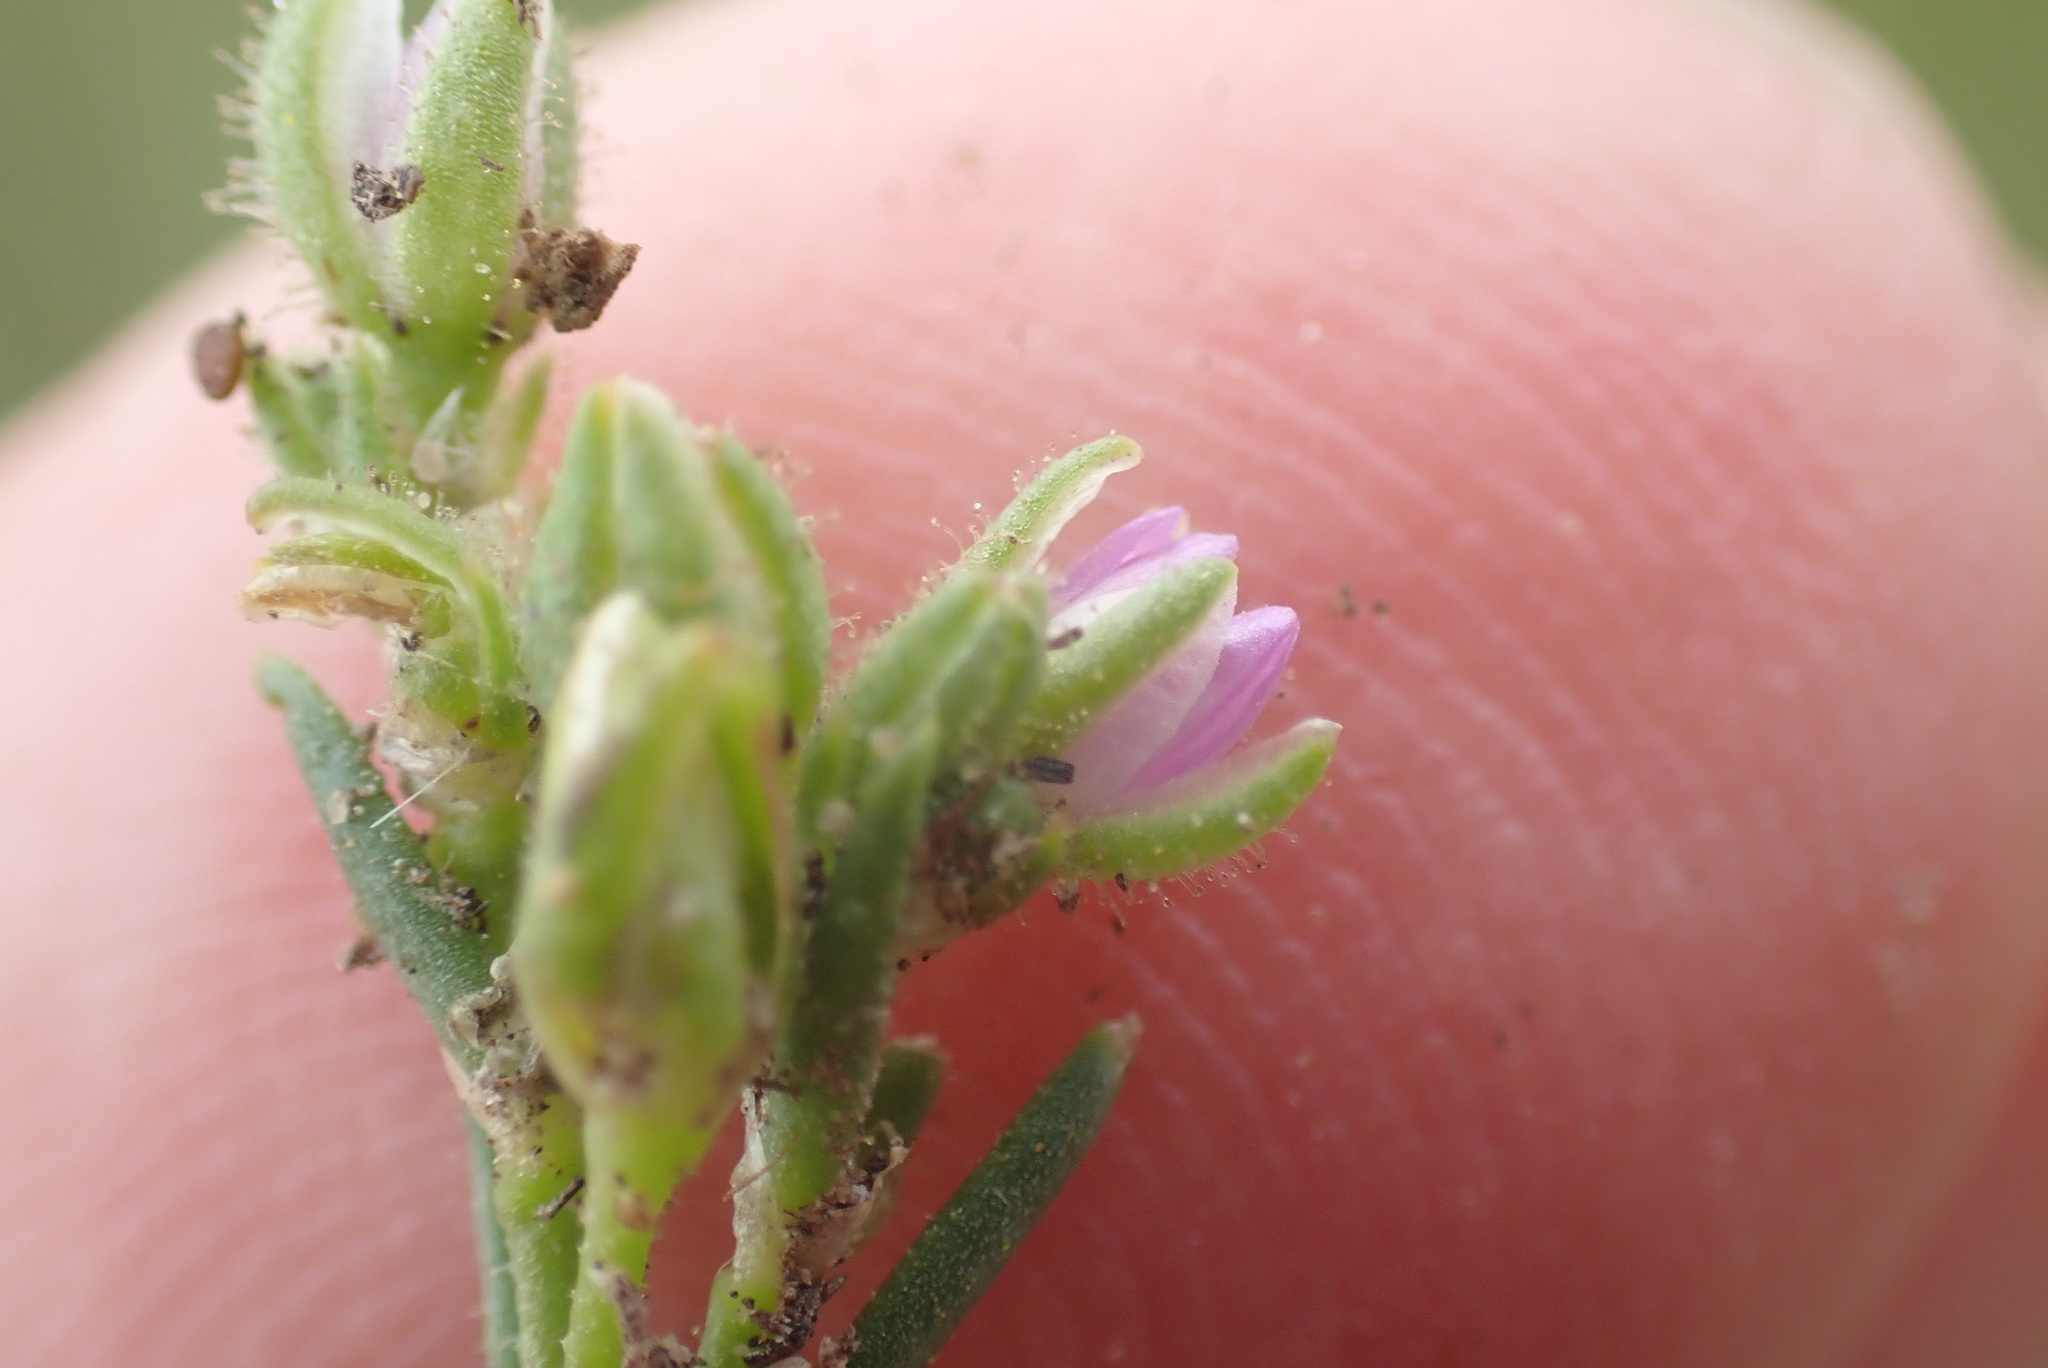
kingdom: Plantae
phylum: Tracheophyta
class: Magnoliopsida
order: Caryophyllales
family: Caryophyllaceae
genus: Spergularia
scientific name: Spergularia marina
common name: Lesser sea-spurrey
